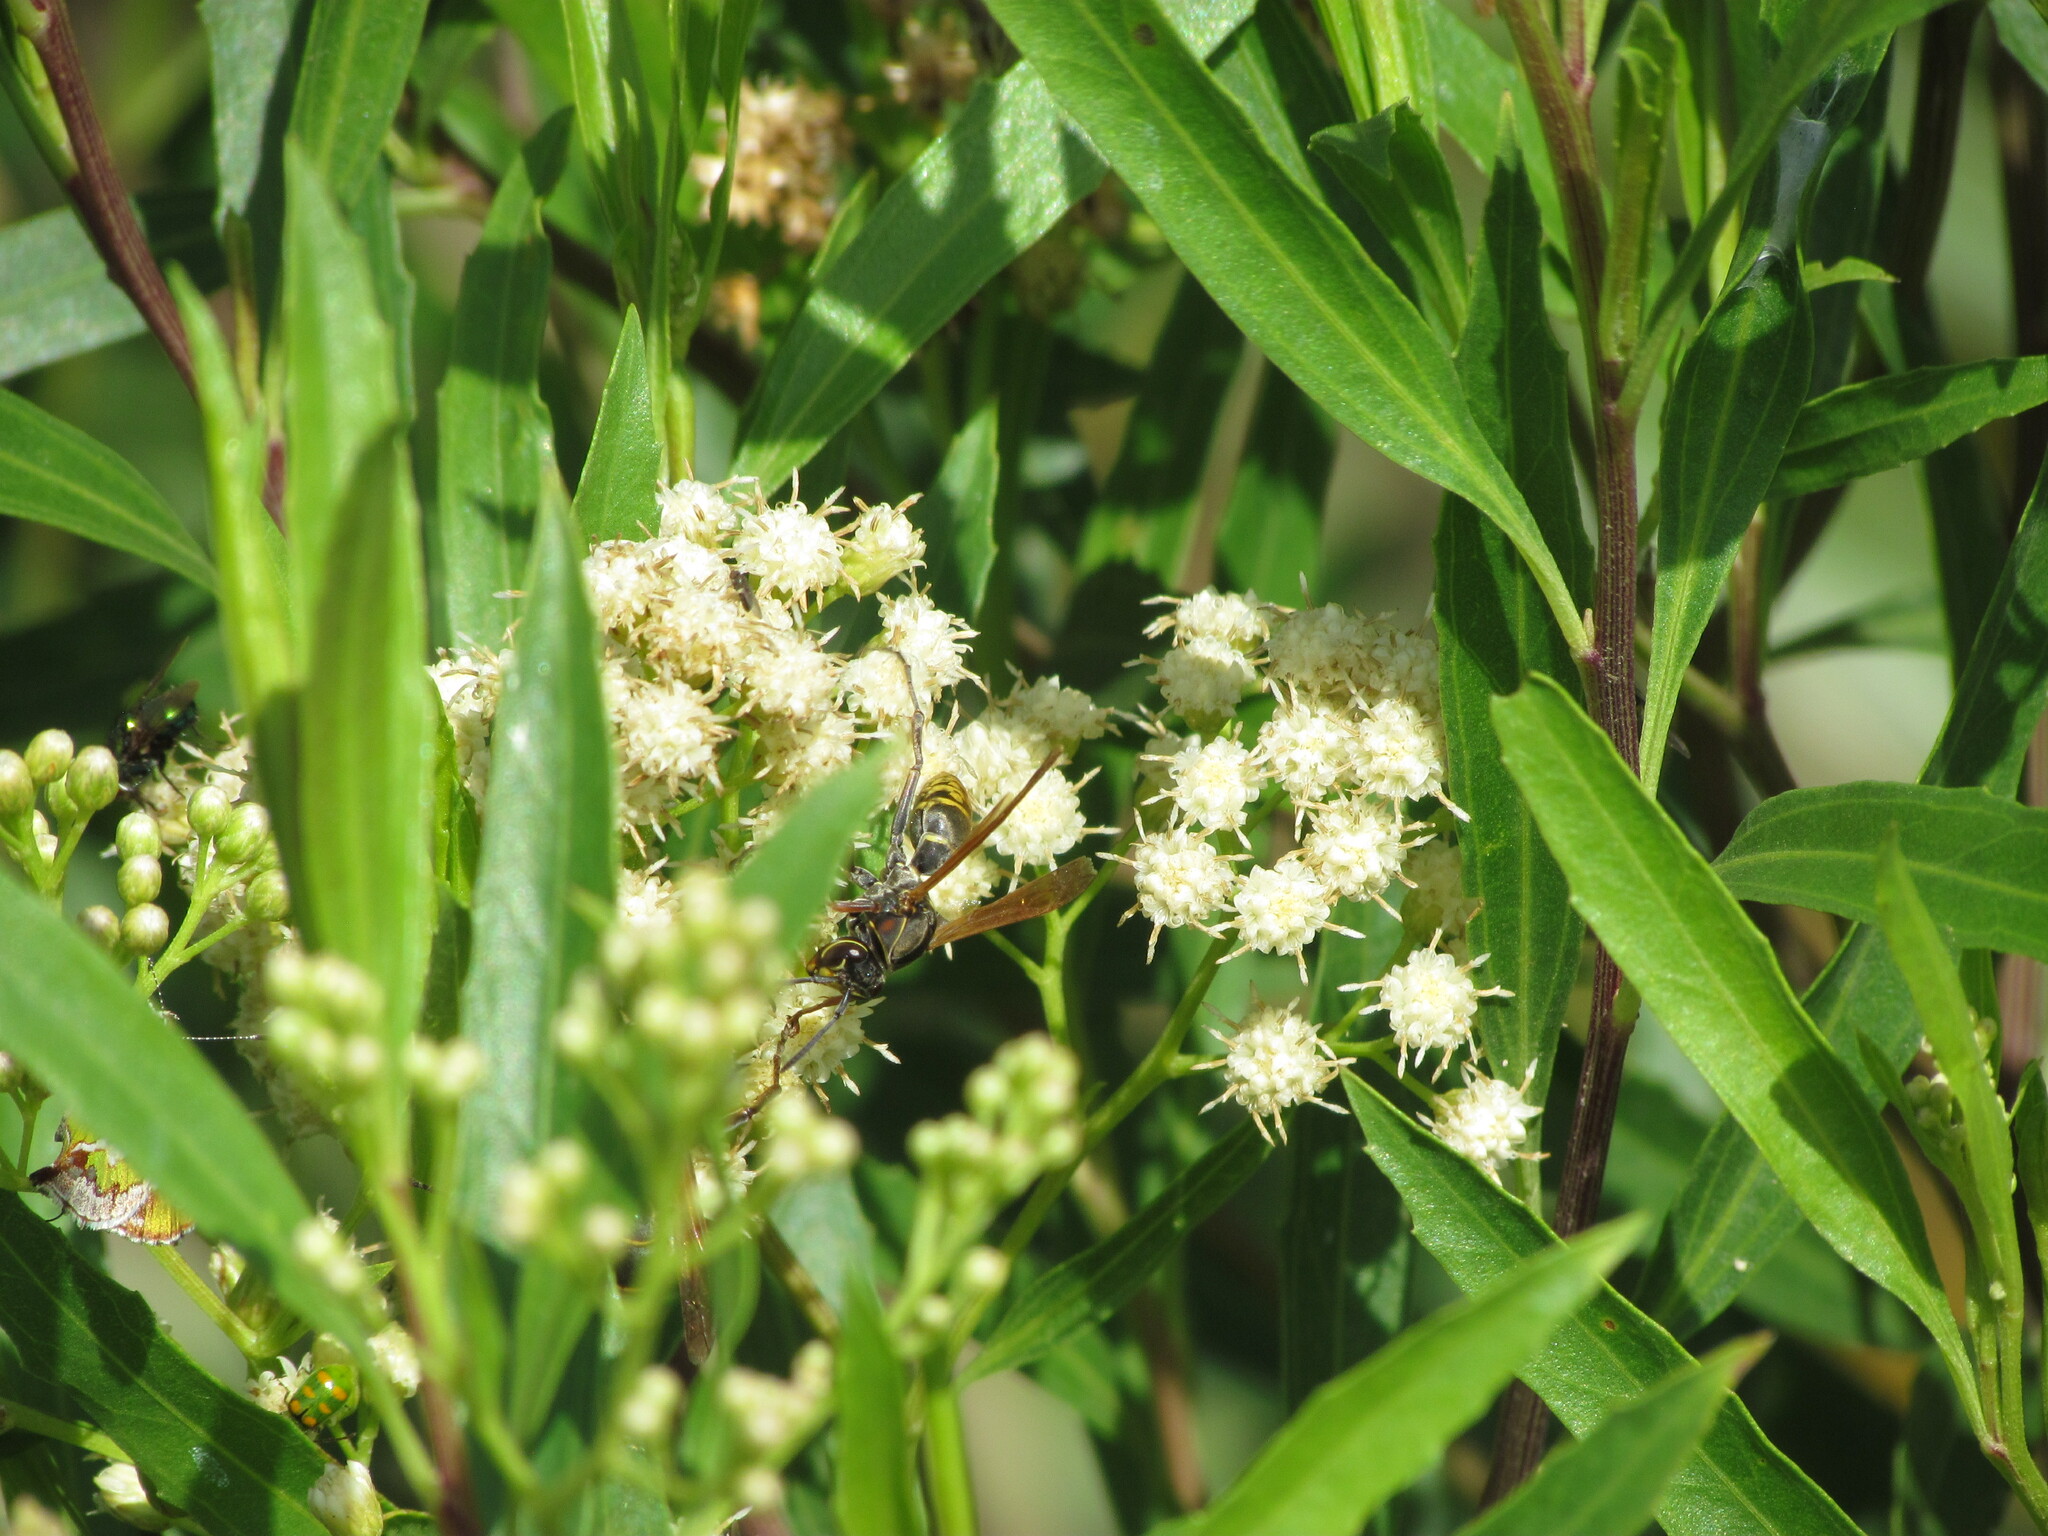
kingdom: Animalia
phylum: Arthropoda
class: Insecta
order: Hymenoptera
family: Eumenidae
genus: Polistes
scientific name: Polistes cinerascens
